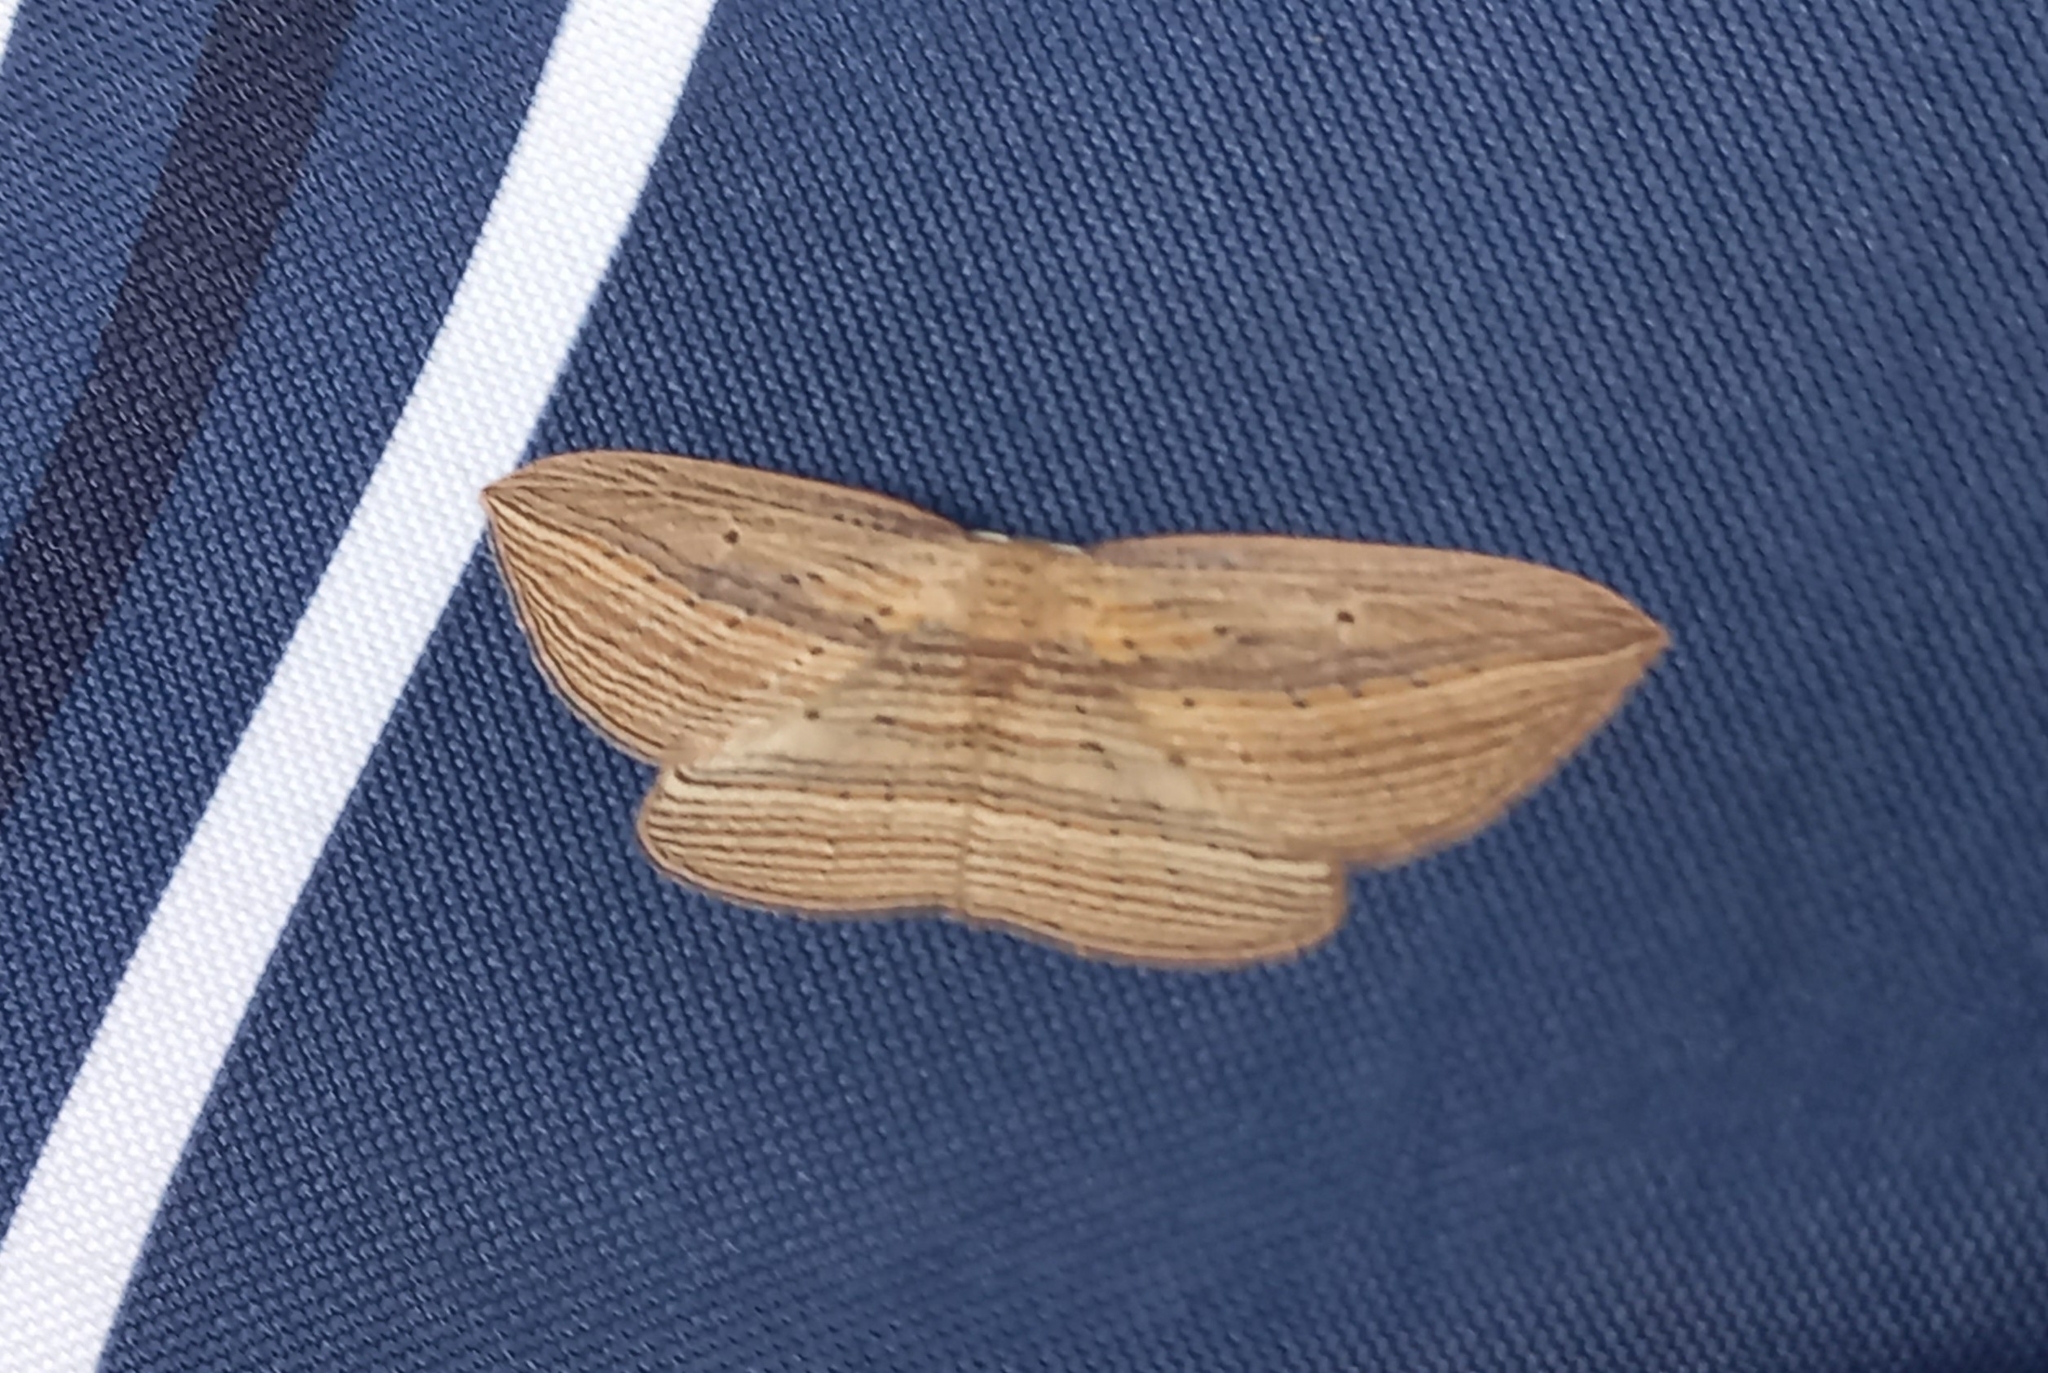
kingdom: Animalia
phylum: Arthropoda
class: Insecta
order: Lepidoptera
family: Geometridae
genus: Epiphryne
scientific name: Epiphryne verriculata
